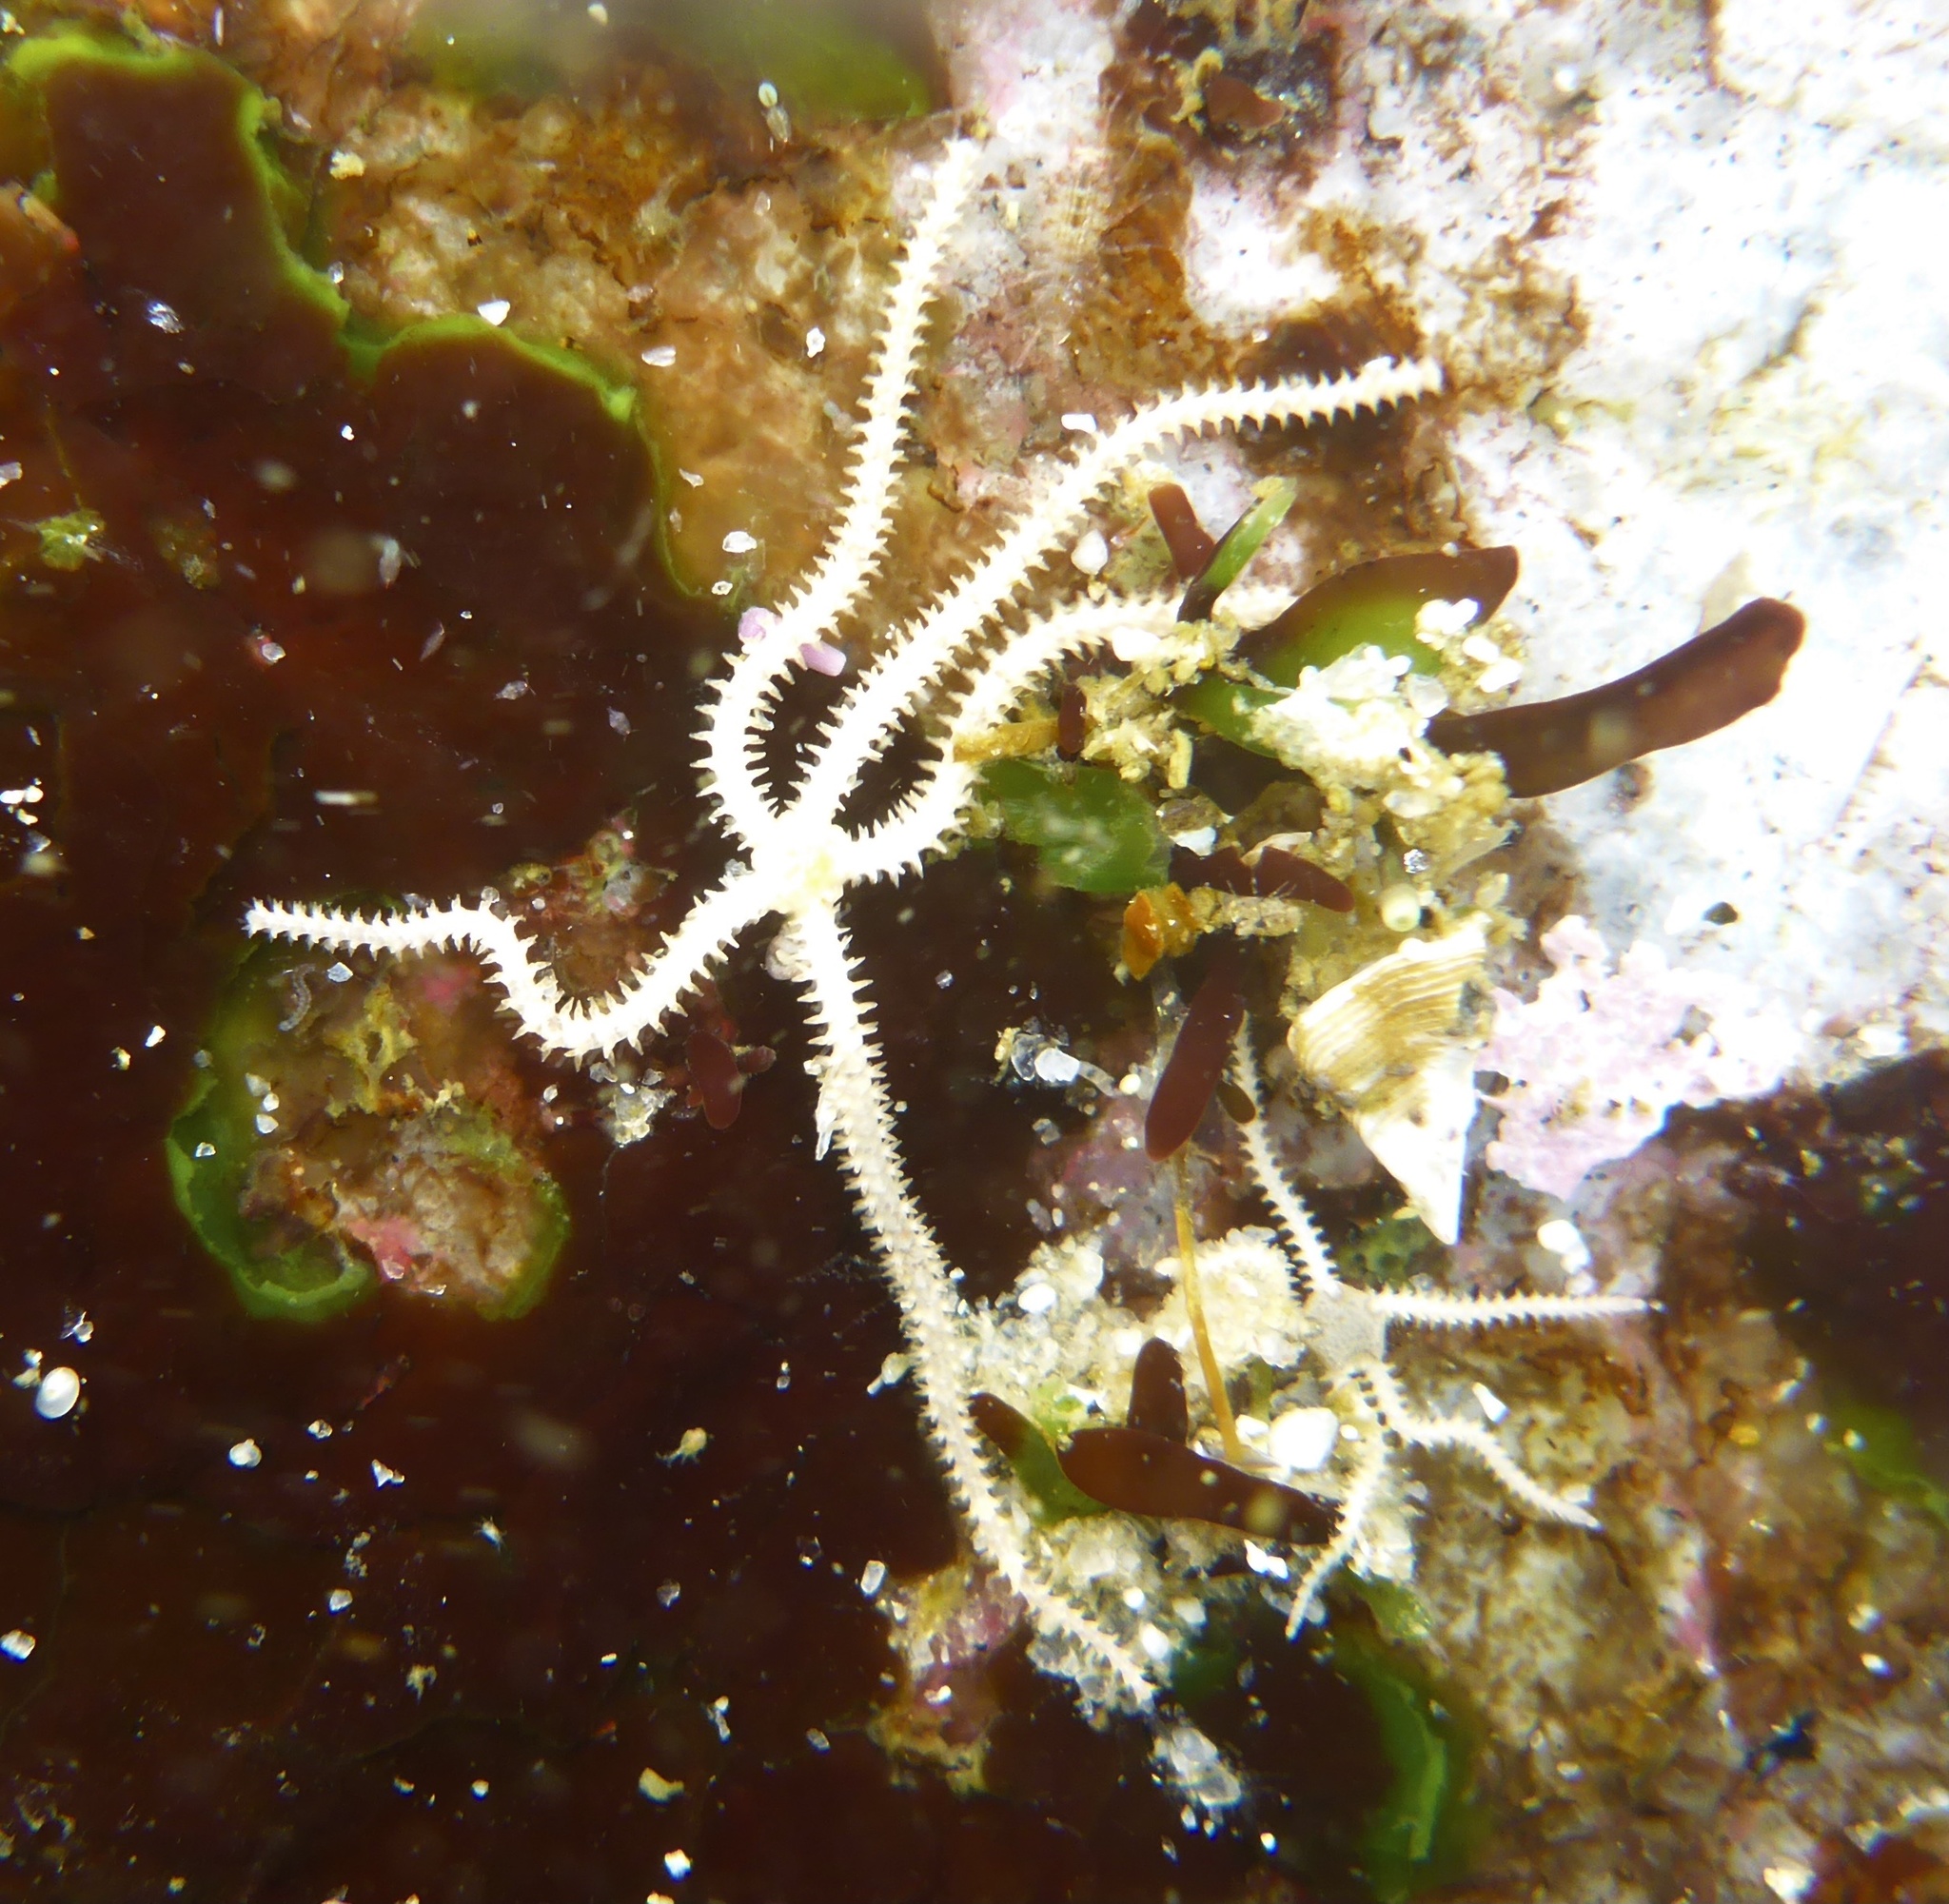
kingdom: Animalia
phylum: Echinodermata
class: Ophiuroidea
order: Amphilepidida
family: Amphiuridae
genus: Amphiodia
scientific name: Amphiodia occidentalis
